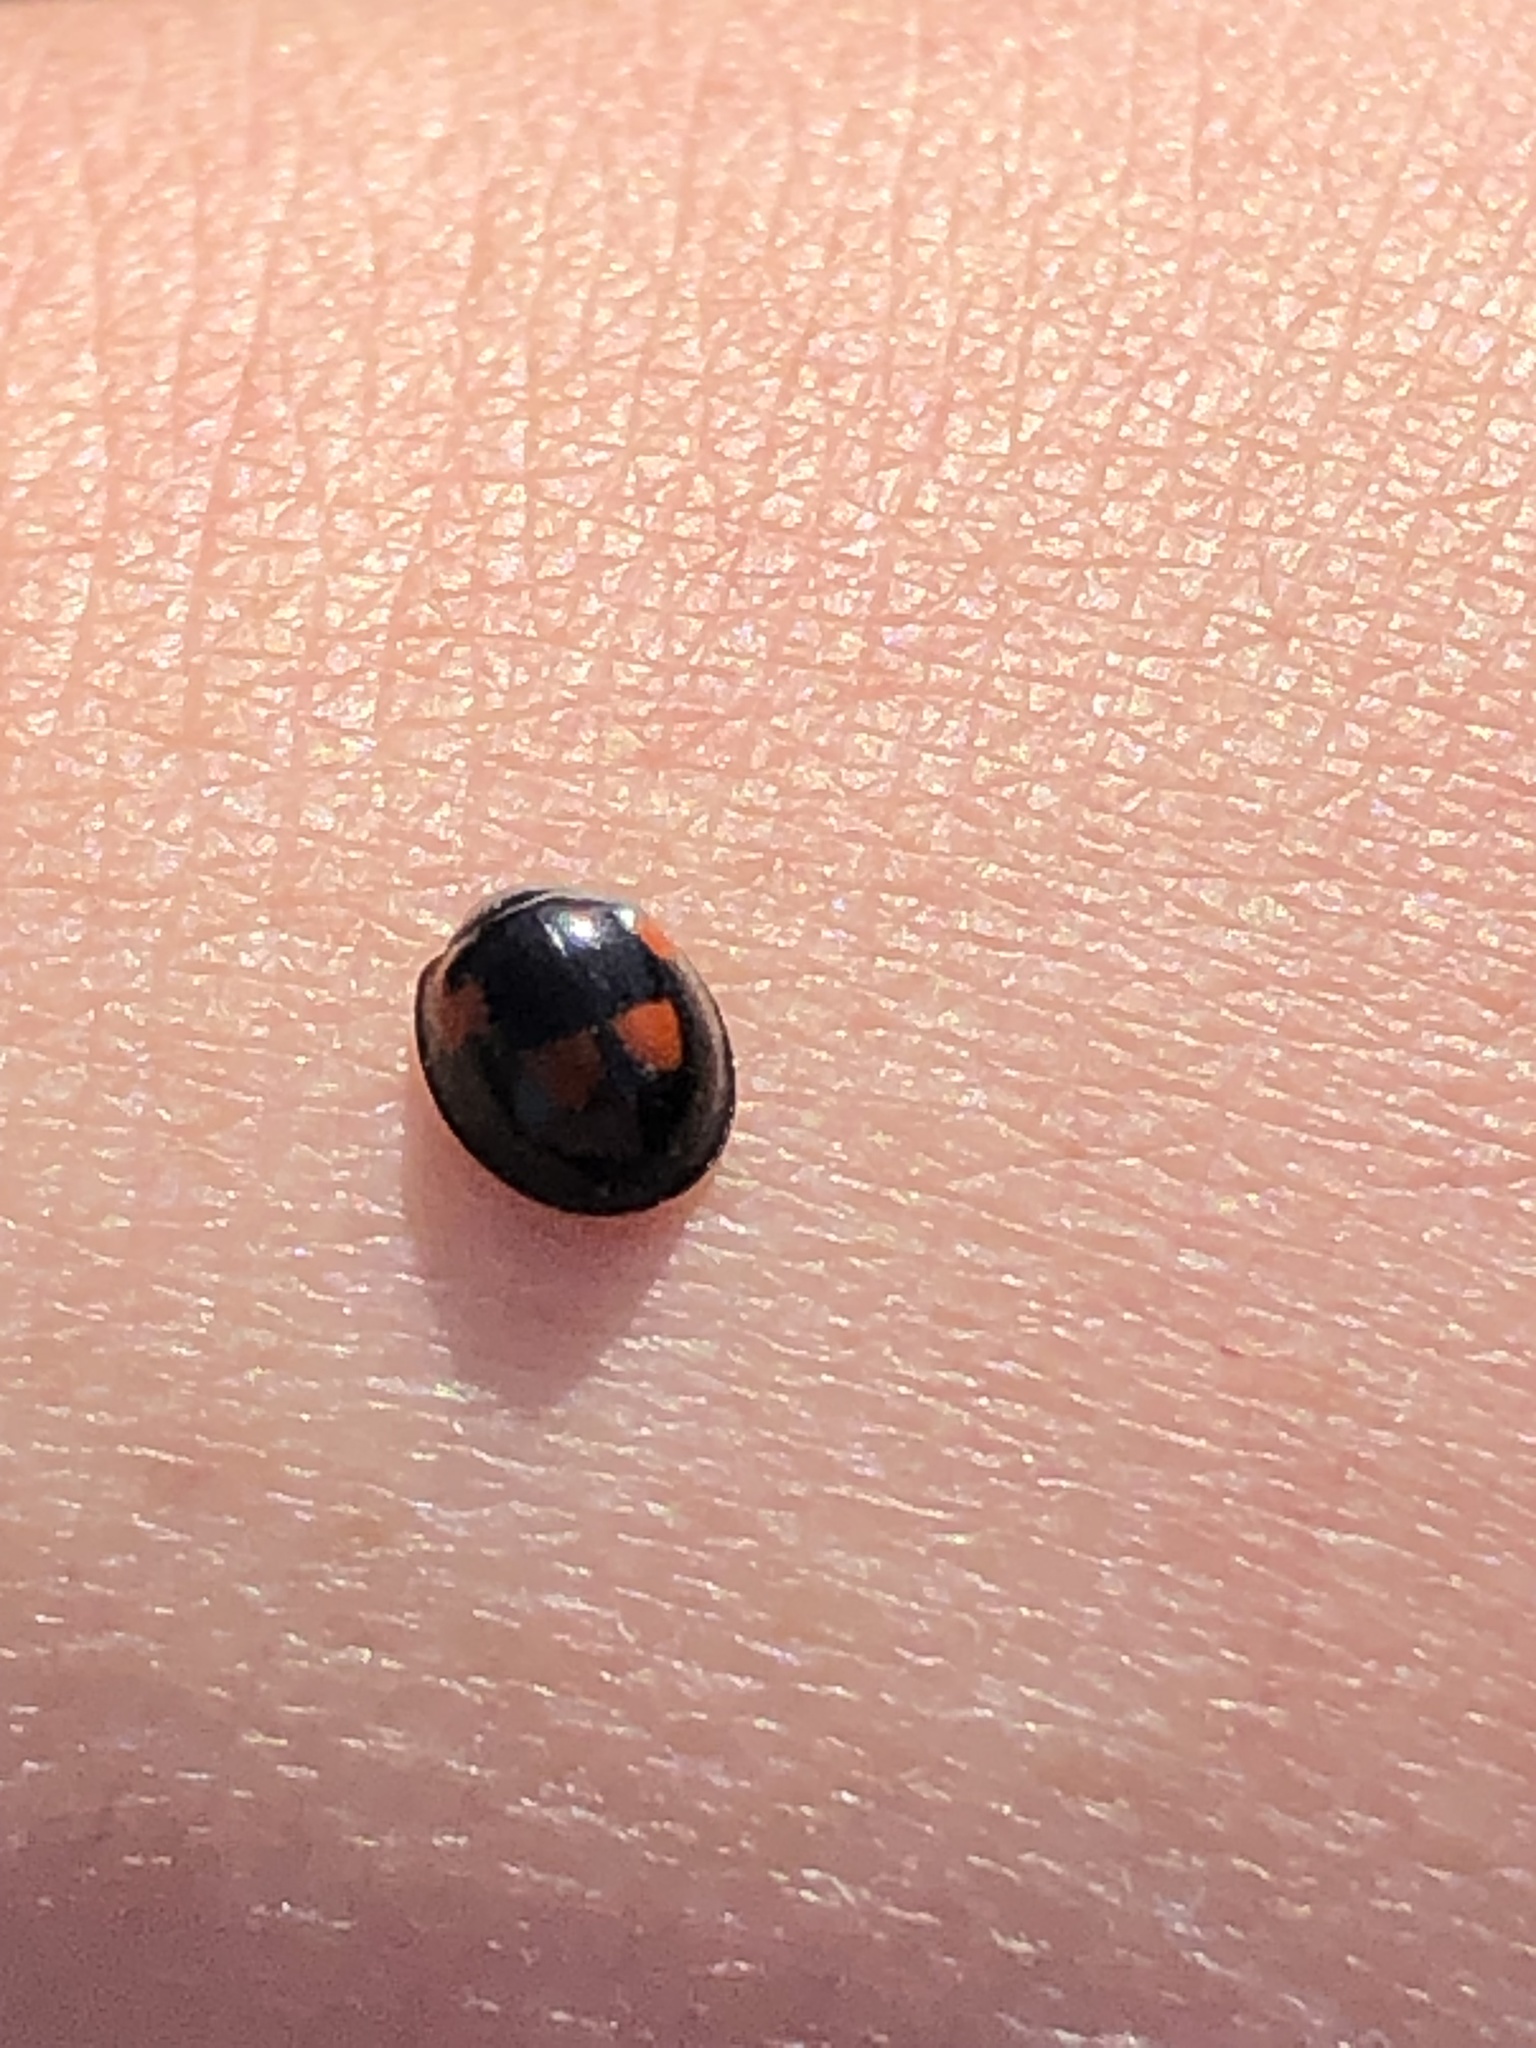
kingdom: Animalia
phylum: Arthropoda
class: Insecta
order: Coleoptera
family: Coccinellidae
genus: Brumus
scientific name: Brumus quadripustulatus
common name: Ladybird beetle
